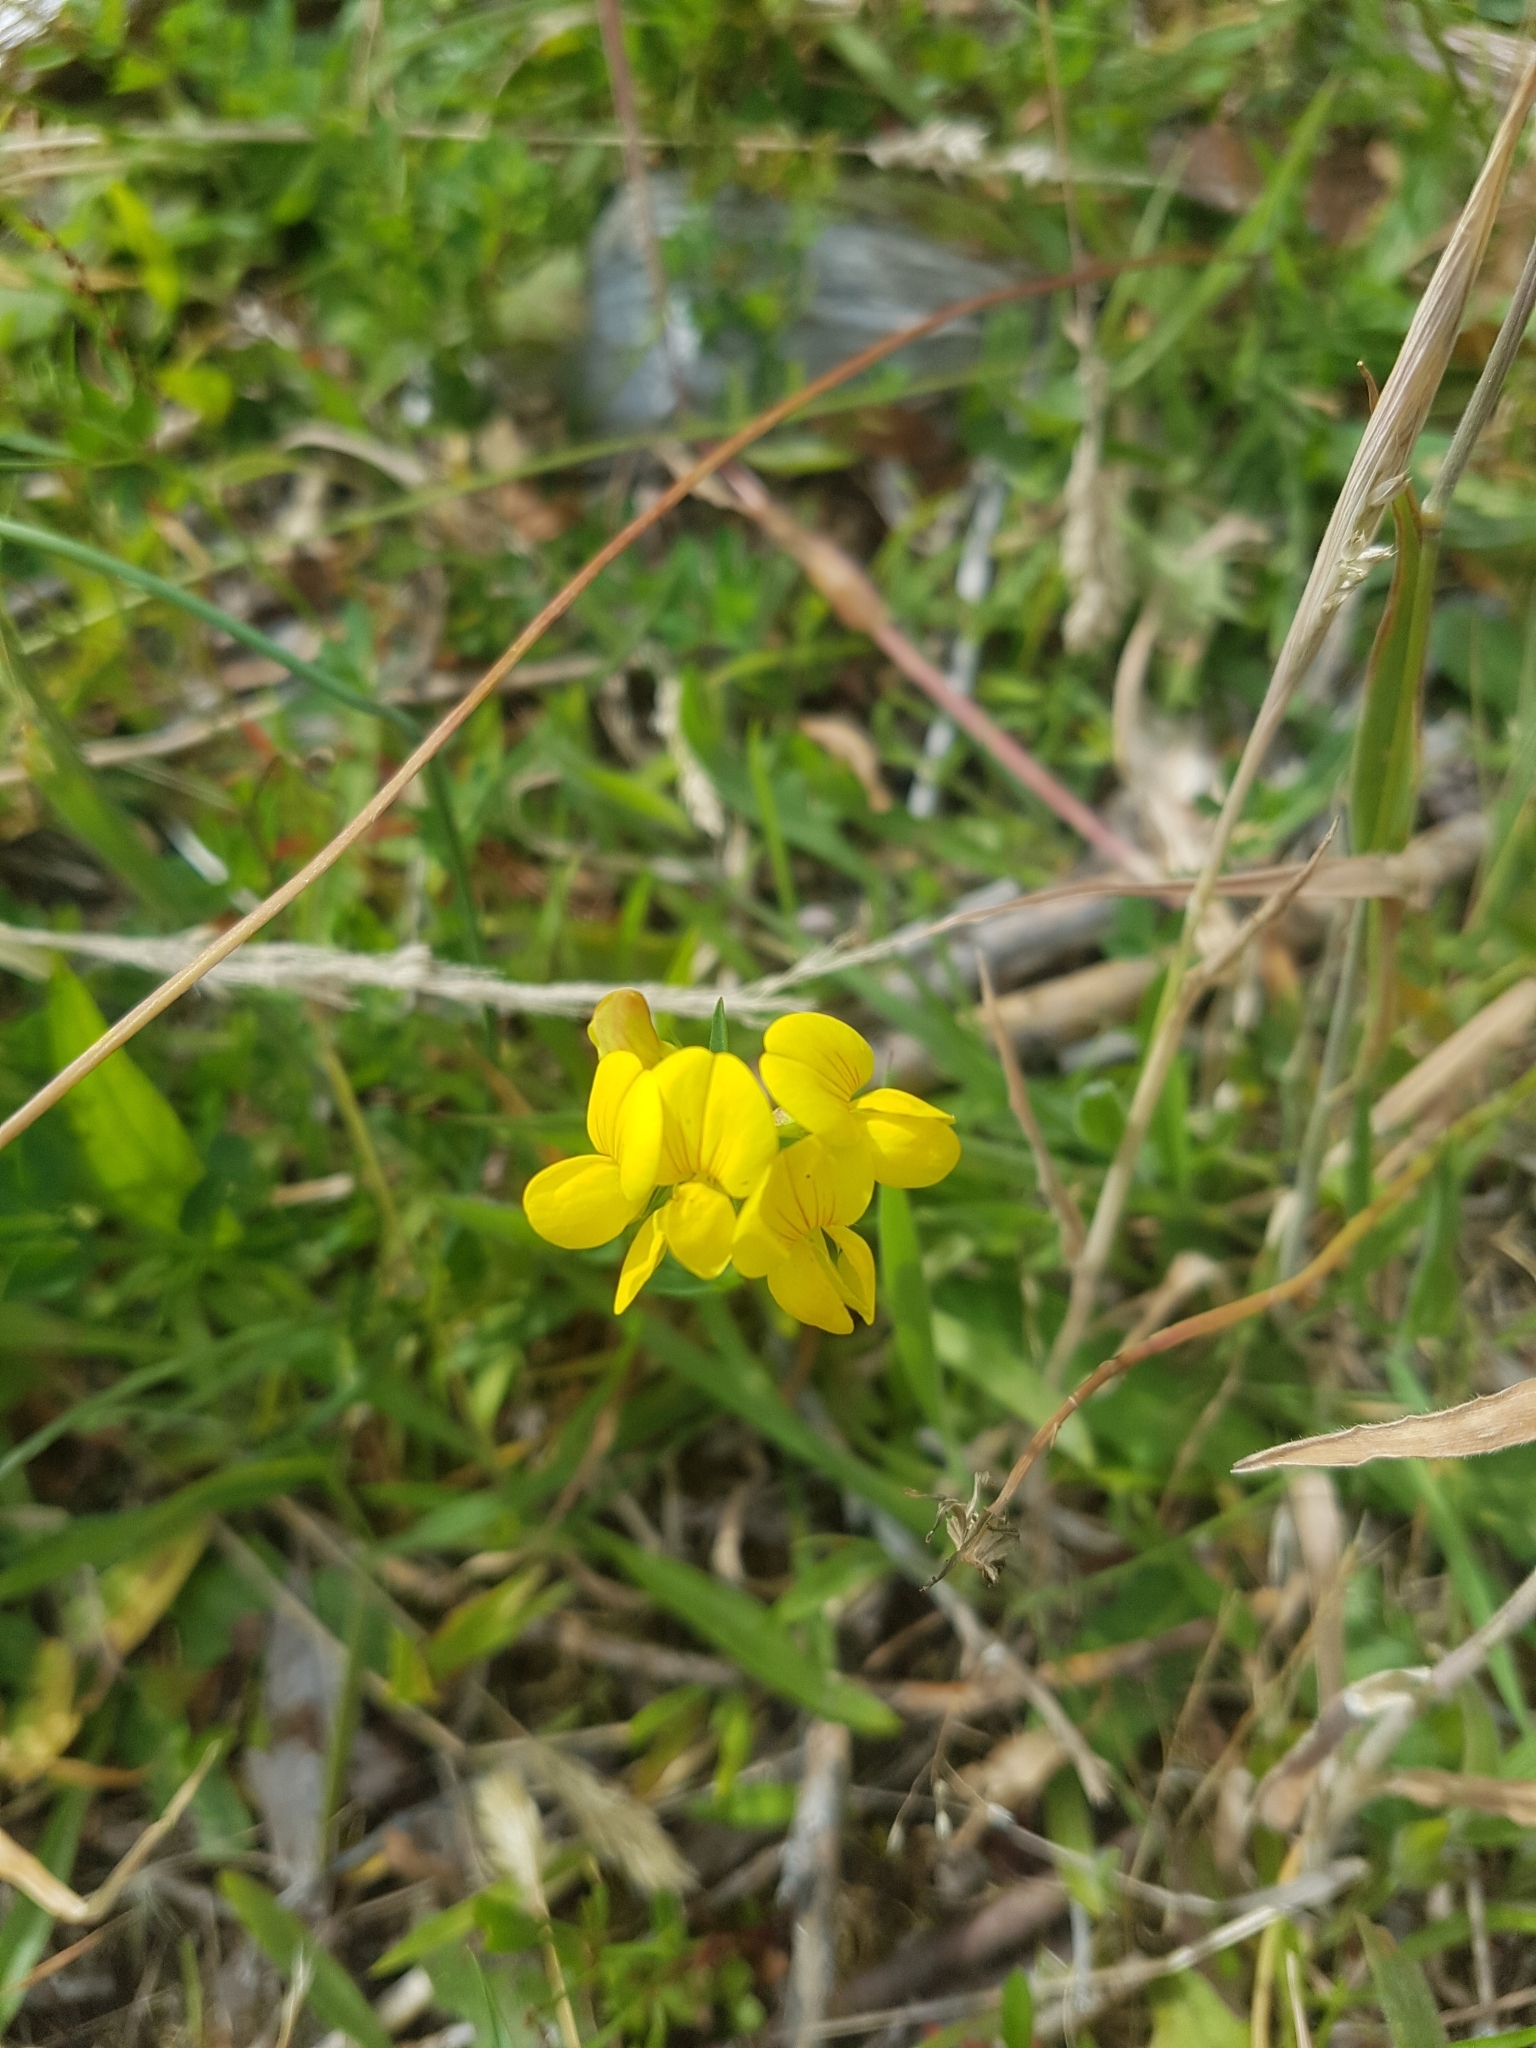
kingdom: Plantae
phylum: Tracheophyta
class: Magnoliopsida
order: Fabales
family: Fabaceae
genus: Lotus
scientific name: Lotus tenuis
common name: Narrow-leaved bird's-foot-trefoil
